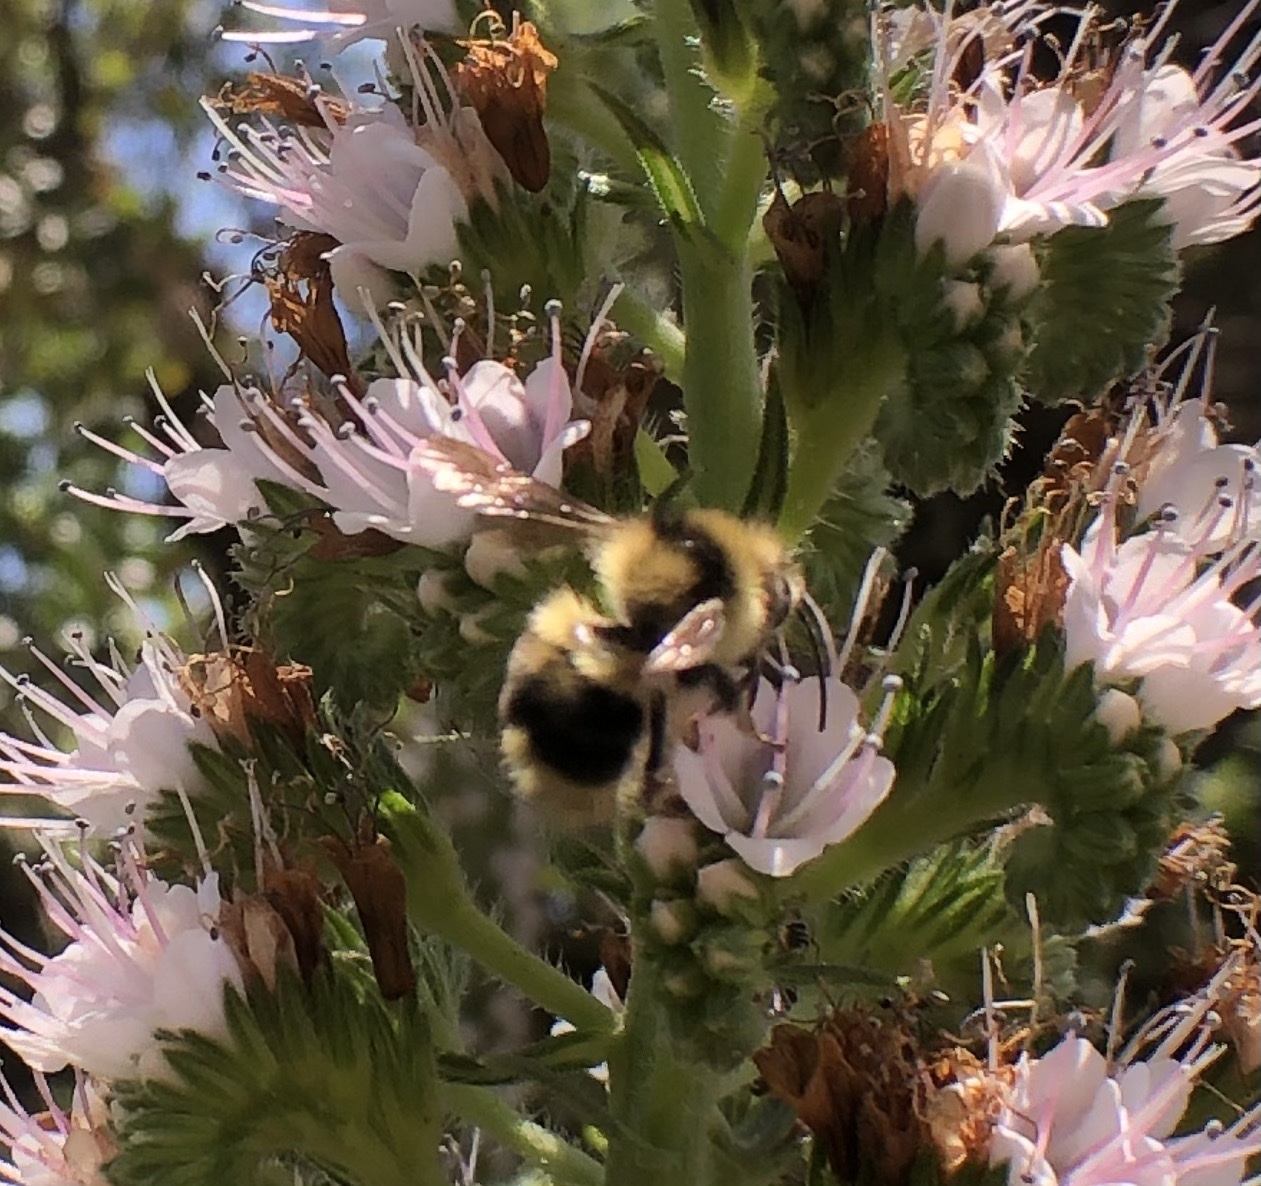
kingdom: Animalia
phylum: Arthropoda
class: Insecta
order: Hymenoptera
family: Apidae
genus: Bombus
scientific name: Bombus melanopygus
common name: Black tail bumble bee
